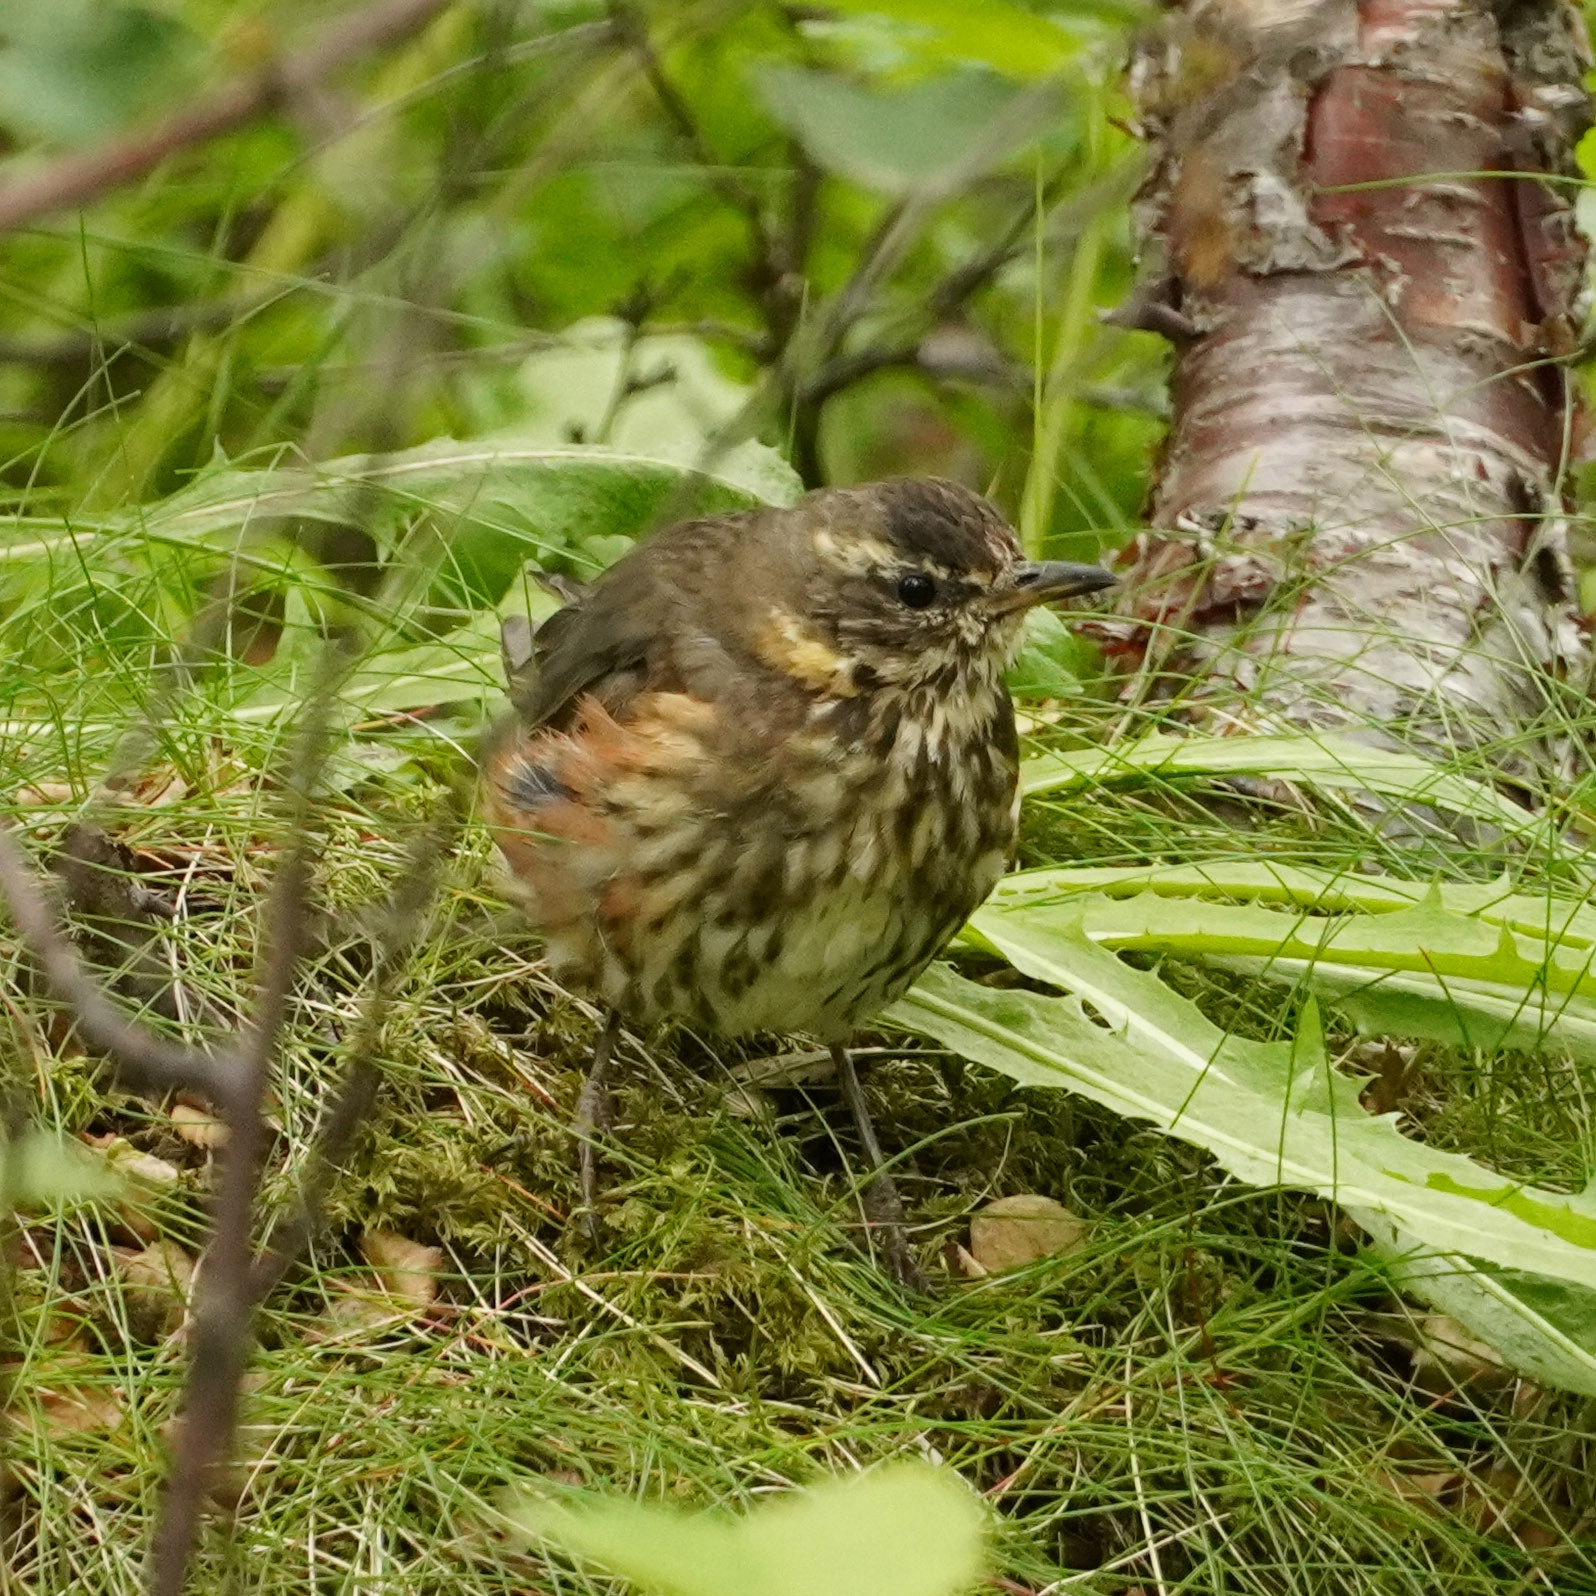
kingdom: Animalia
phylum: Chordata
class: Aves
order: Passeriformes
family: Turdidae
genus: Turdus
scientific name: Turdus iliacus
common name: Redwing
